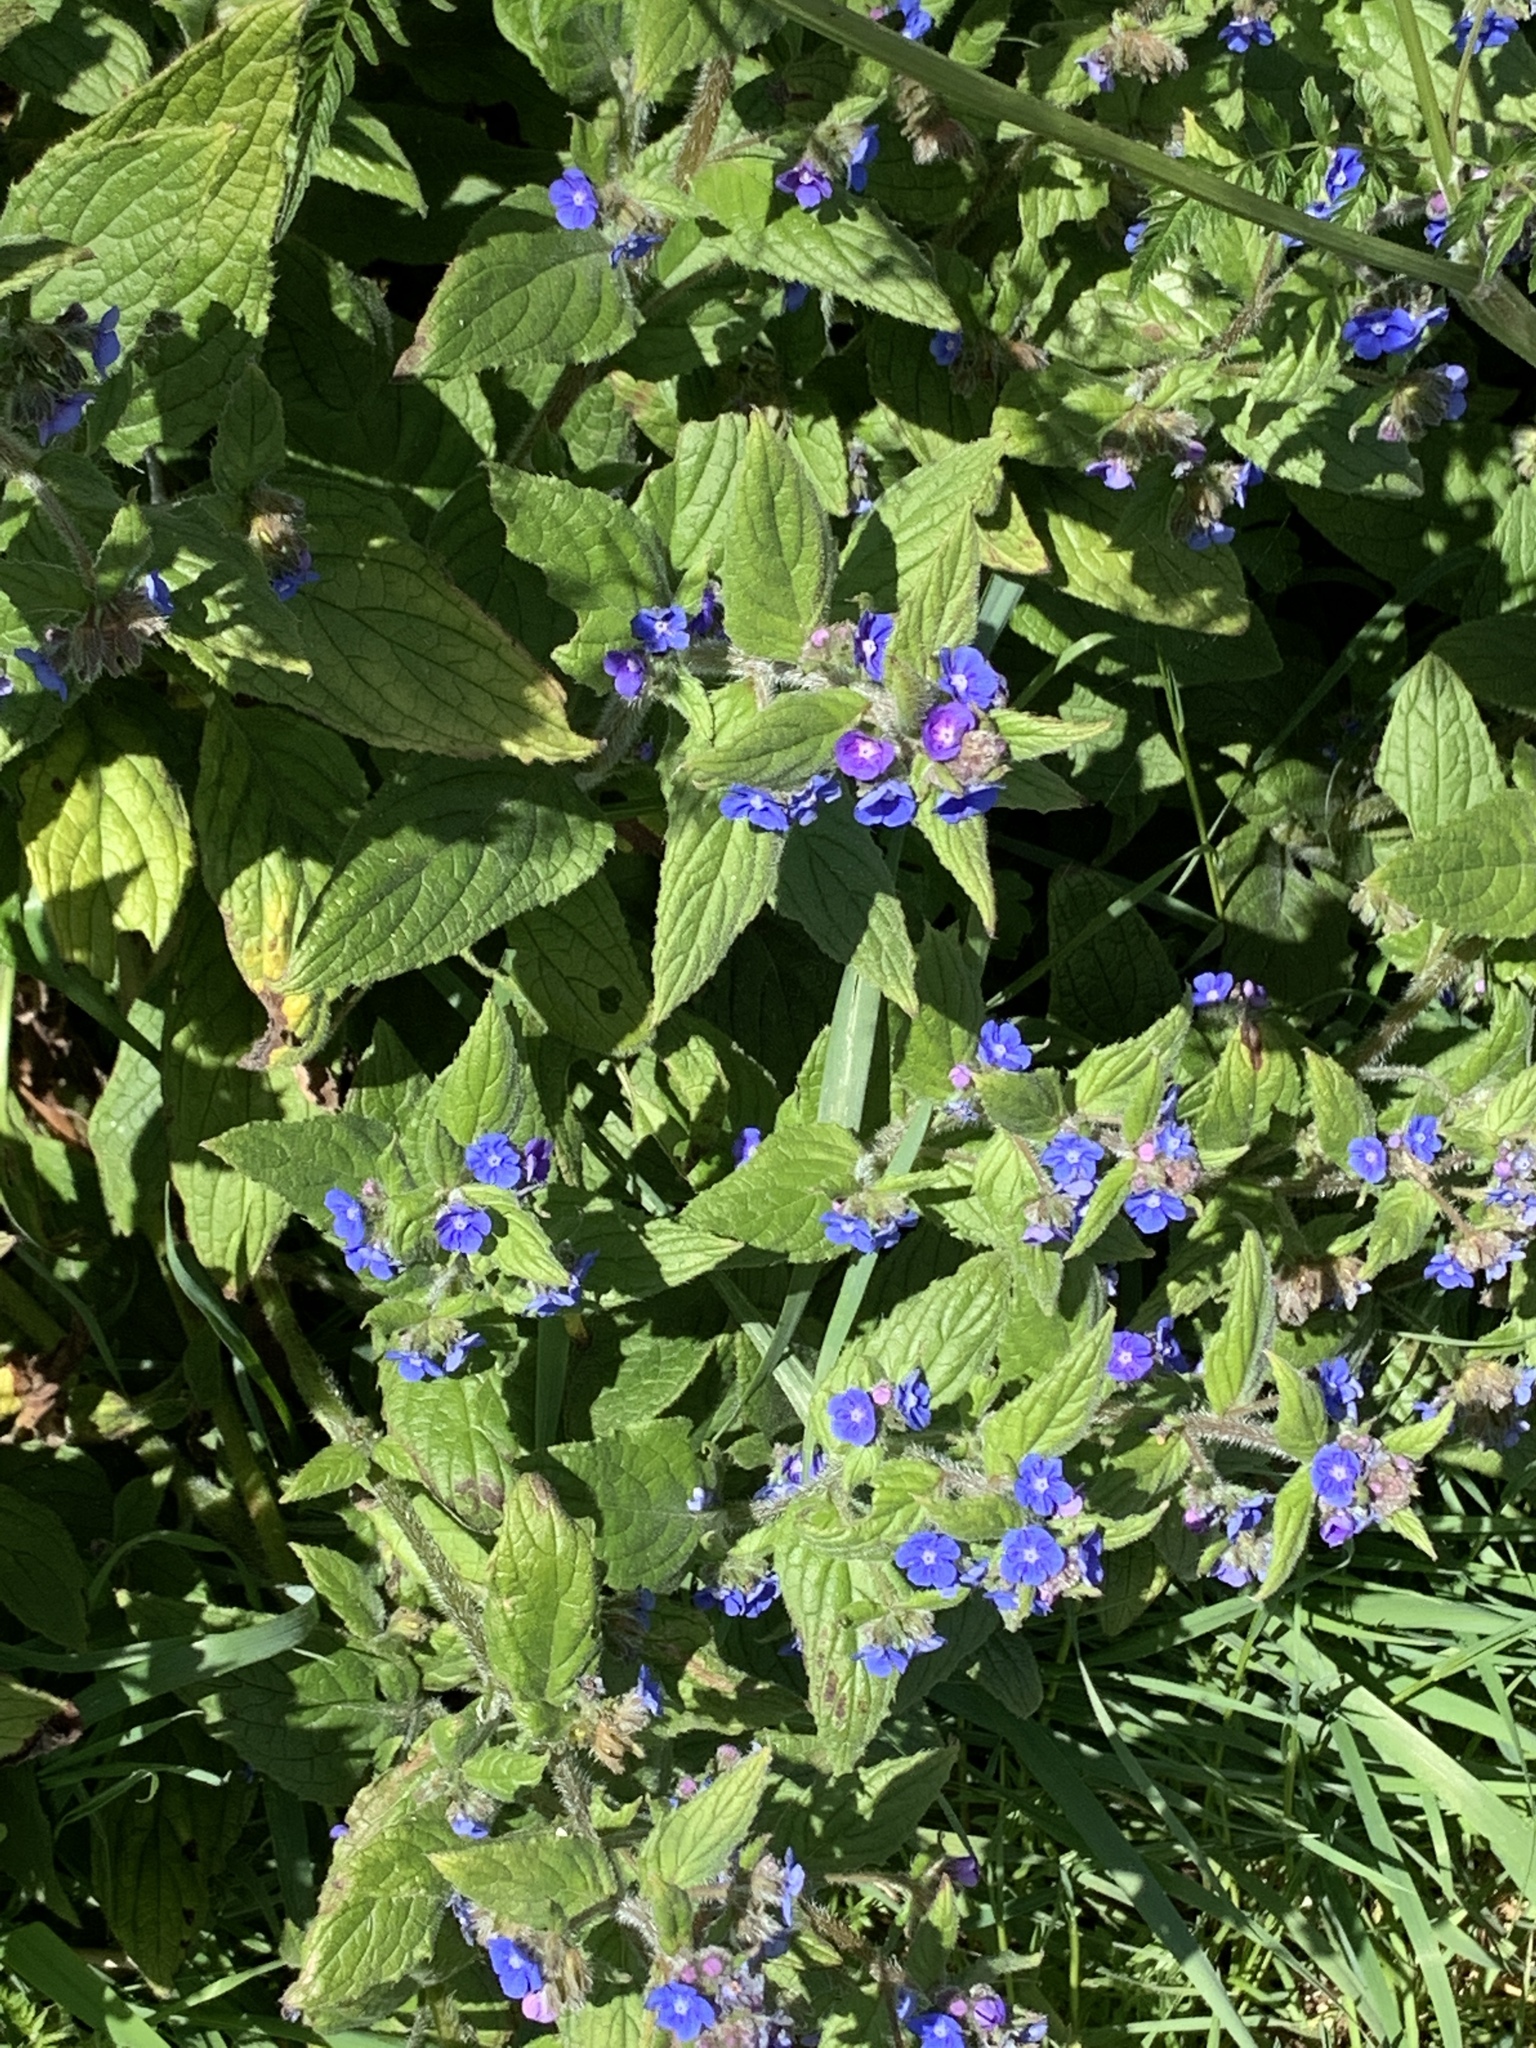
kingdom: Plantae
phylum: Tracheophyta
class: Magnoliopsida
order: Boraginales
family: Boraginaceae
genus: Pentaglottis
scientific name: Pentaglottis sempervirens
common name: Green alkanet
